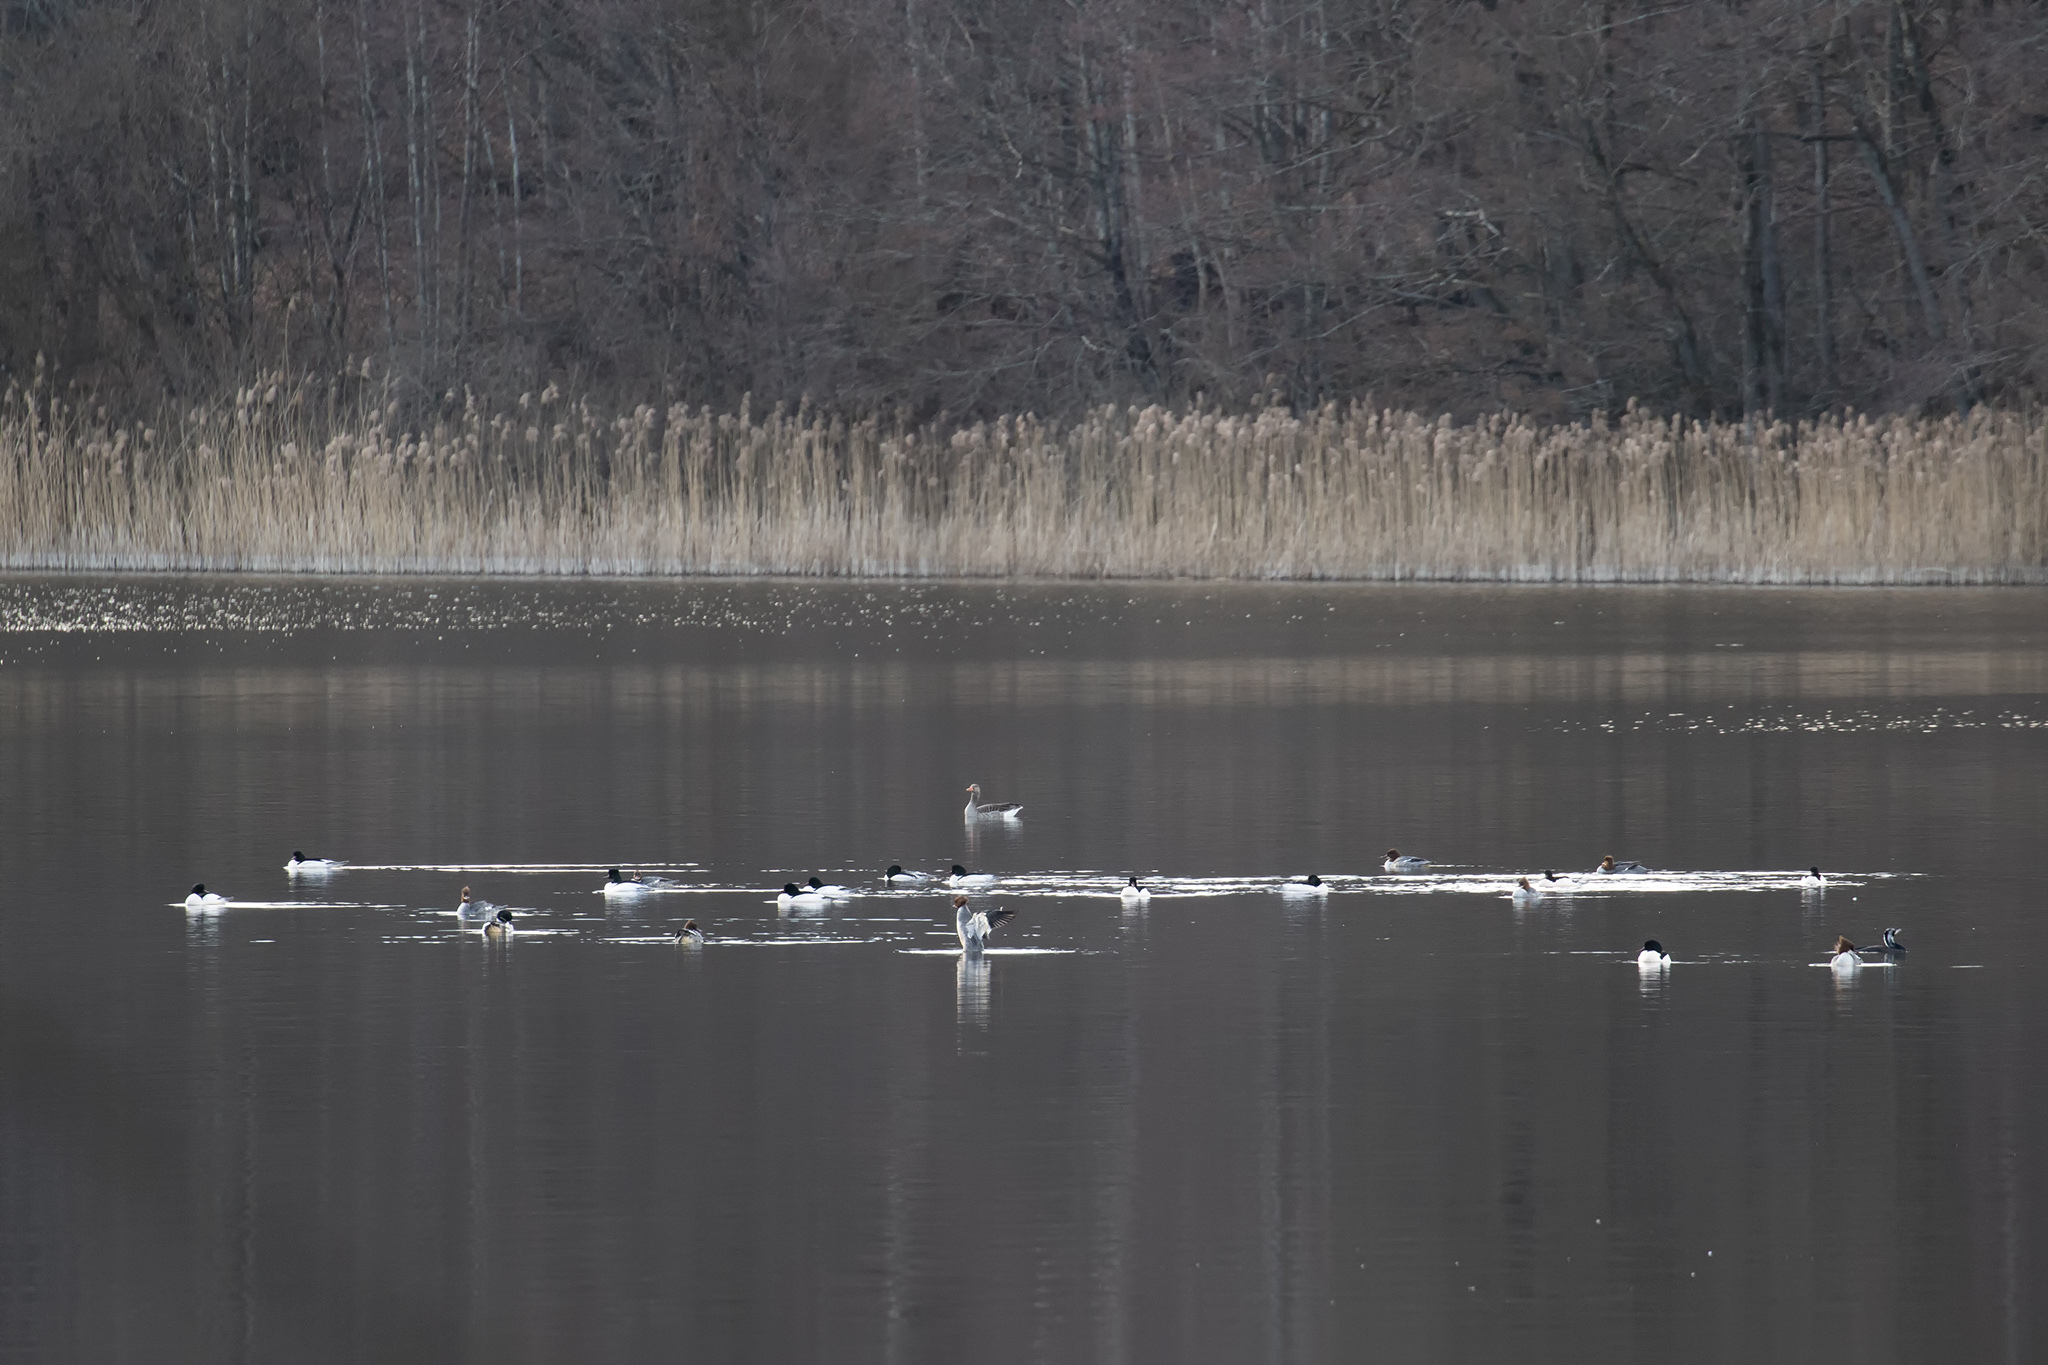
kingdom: Animalia
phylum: Chordata
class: Aves
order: Anseriformes
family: Anatidae
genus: Mergus
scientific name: Mergus merganser
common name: Common merganser
